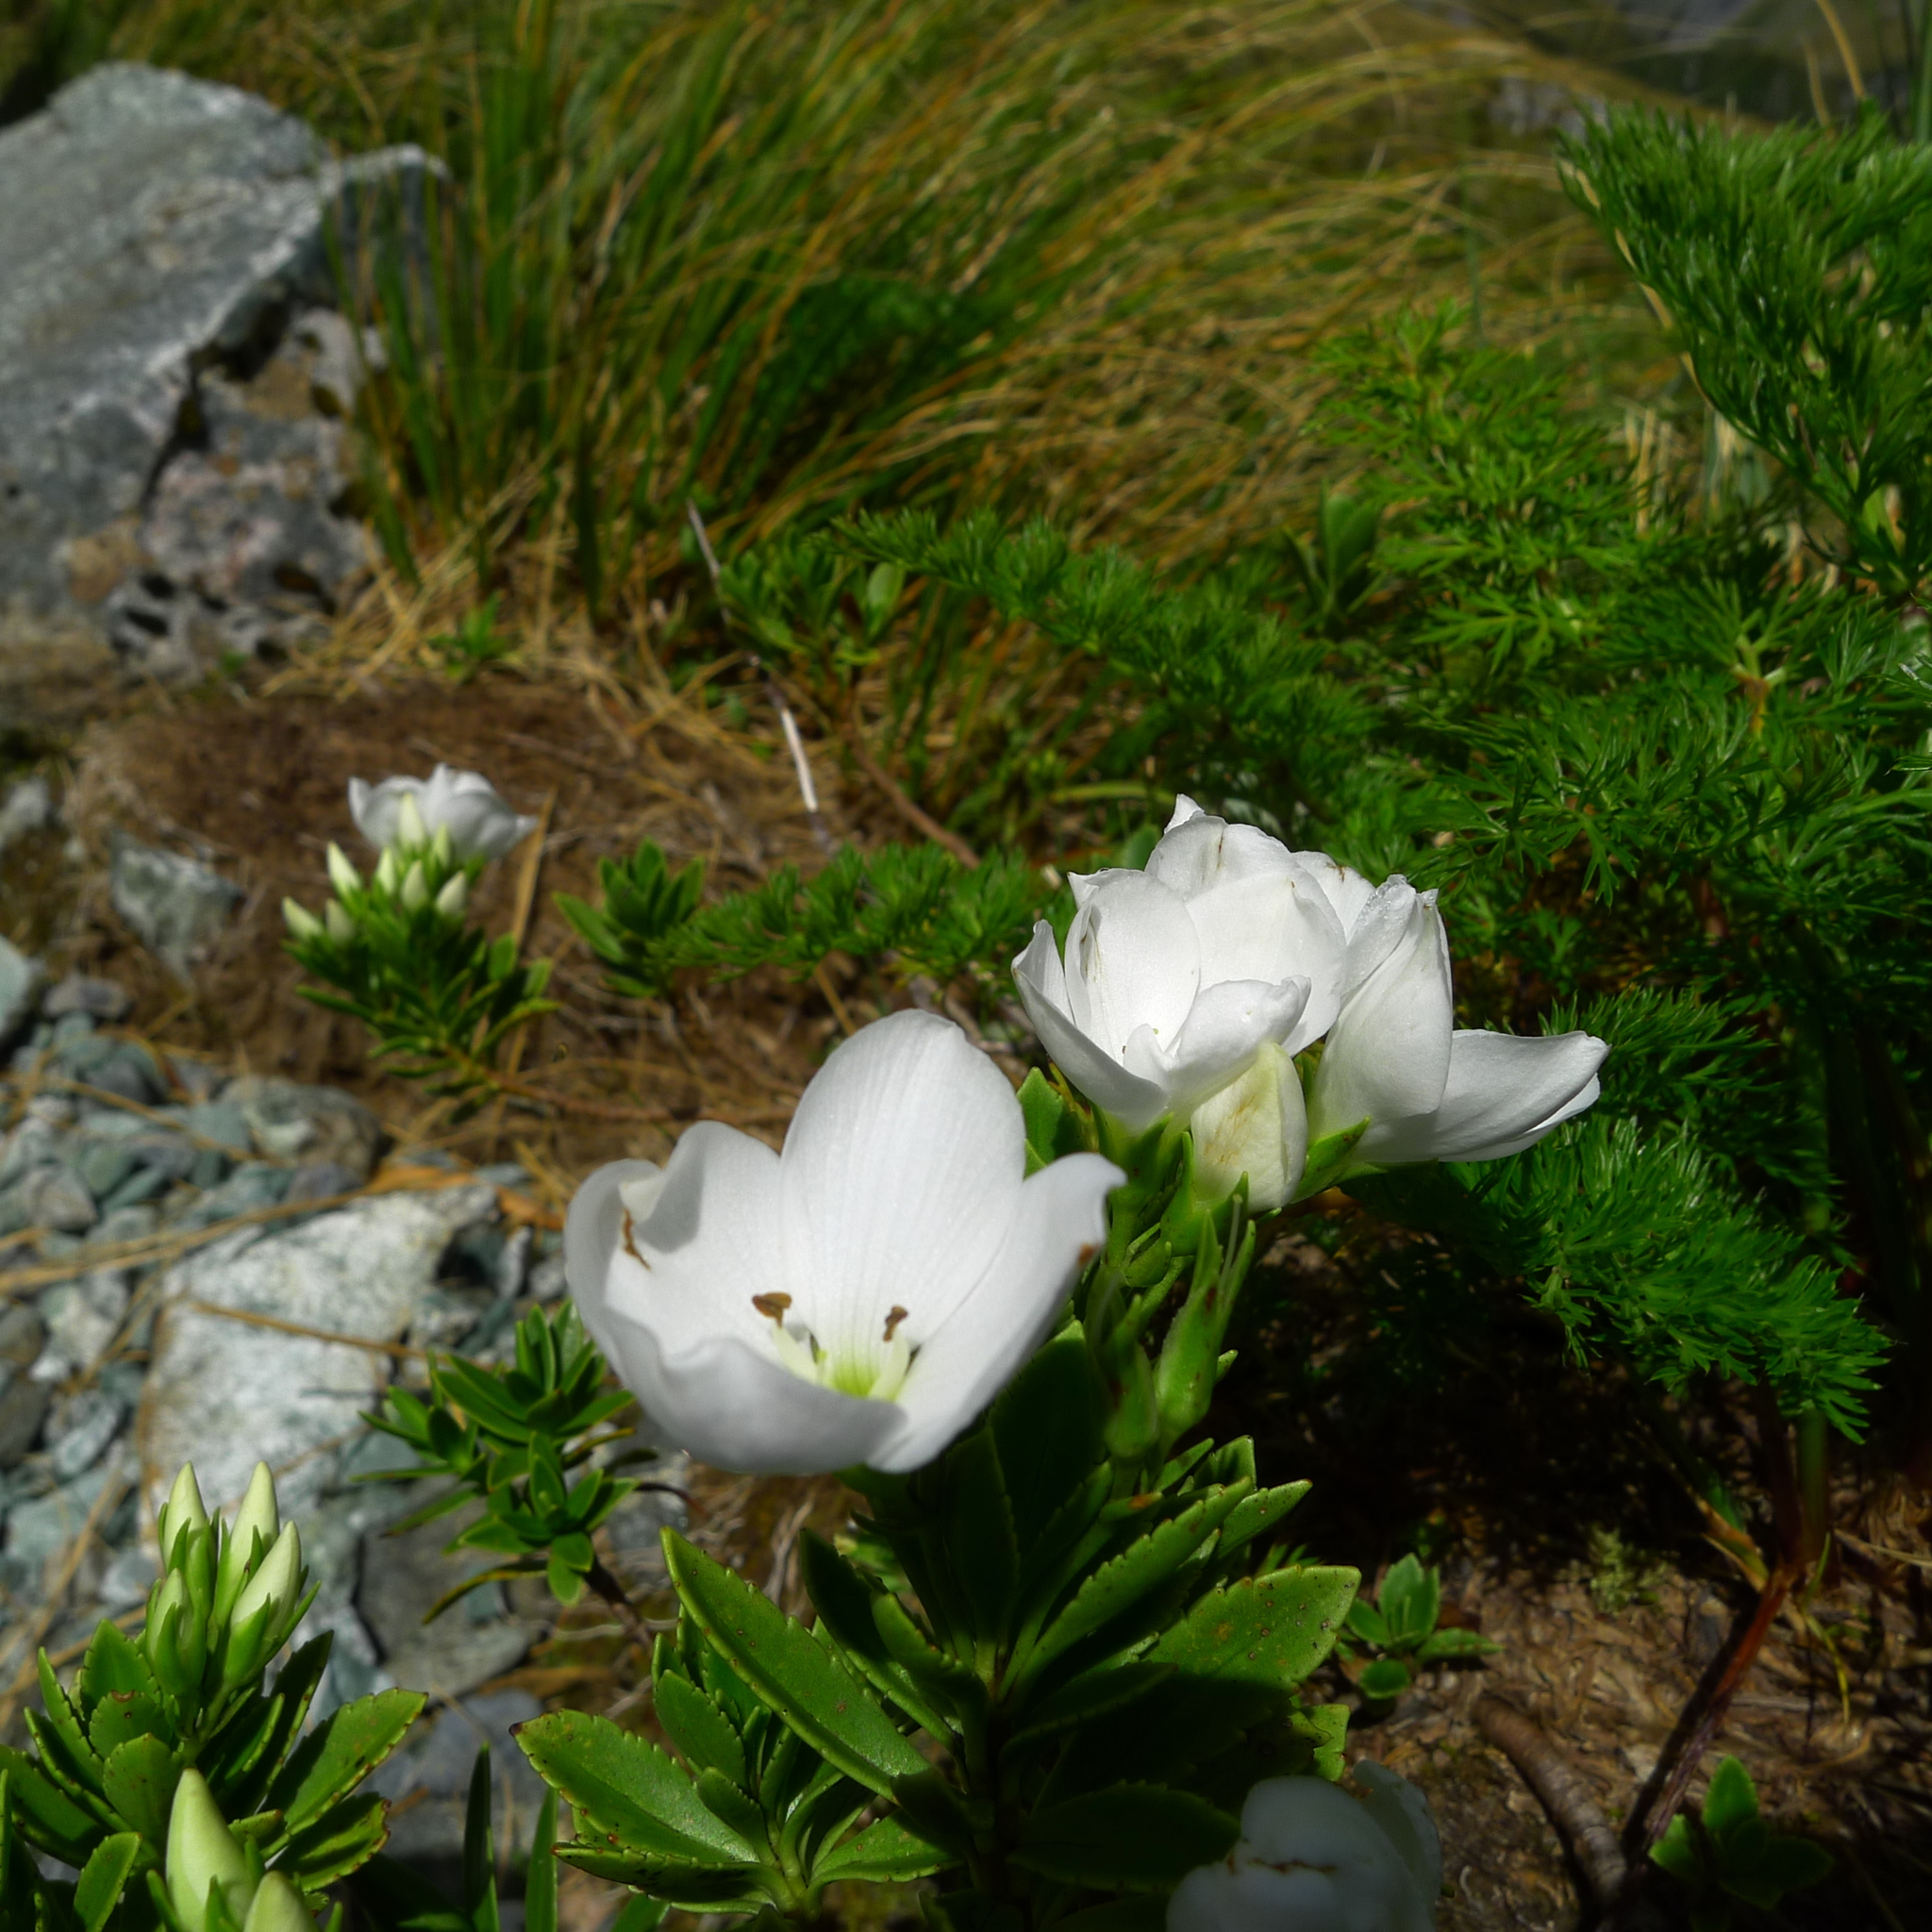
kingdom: Plantae
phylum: Tracheophyta
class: Magnoliopsida
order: Lamiales
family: Plantaginaceae
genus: Veronica
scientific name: Veronica macrantha
